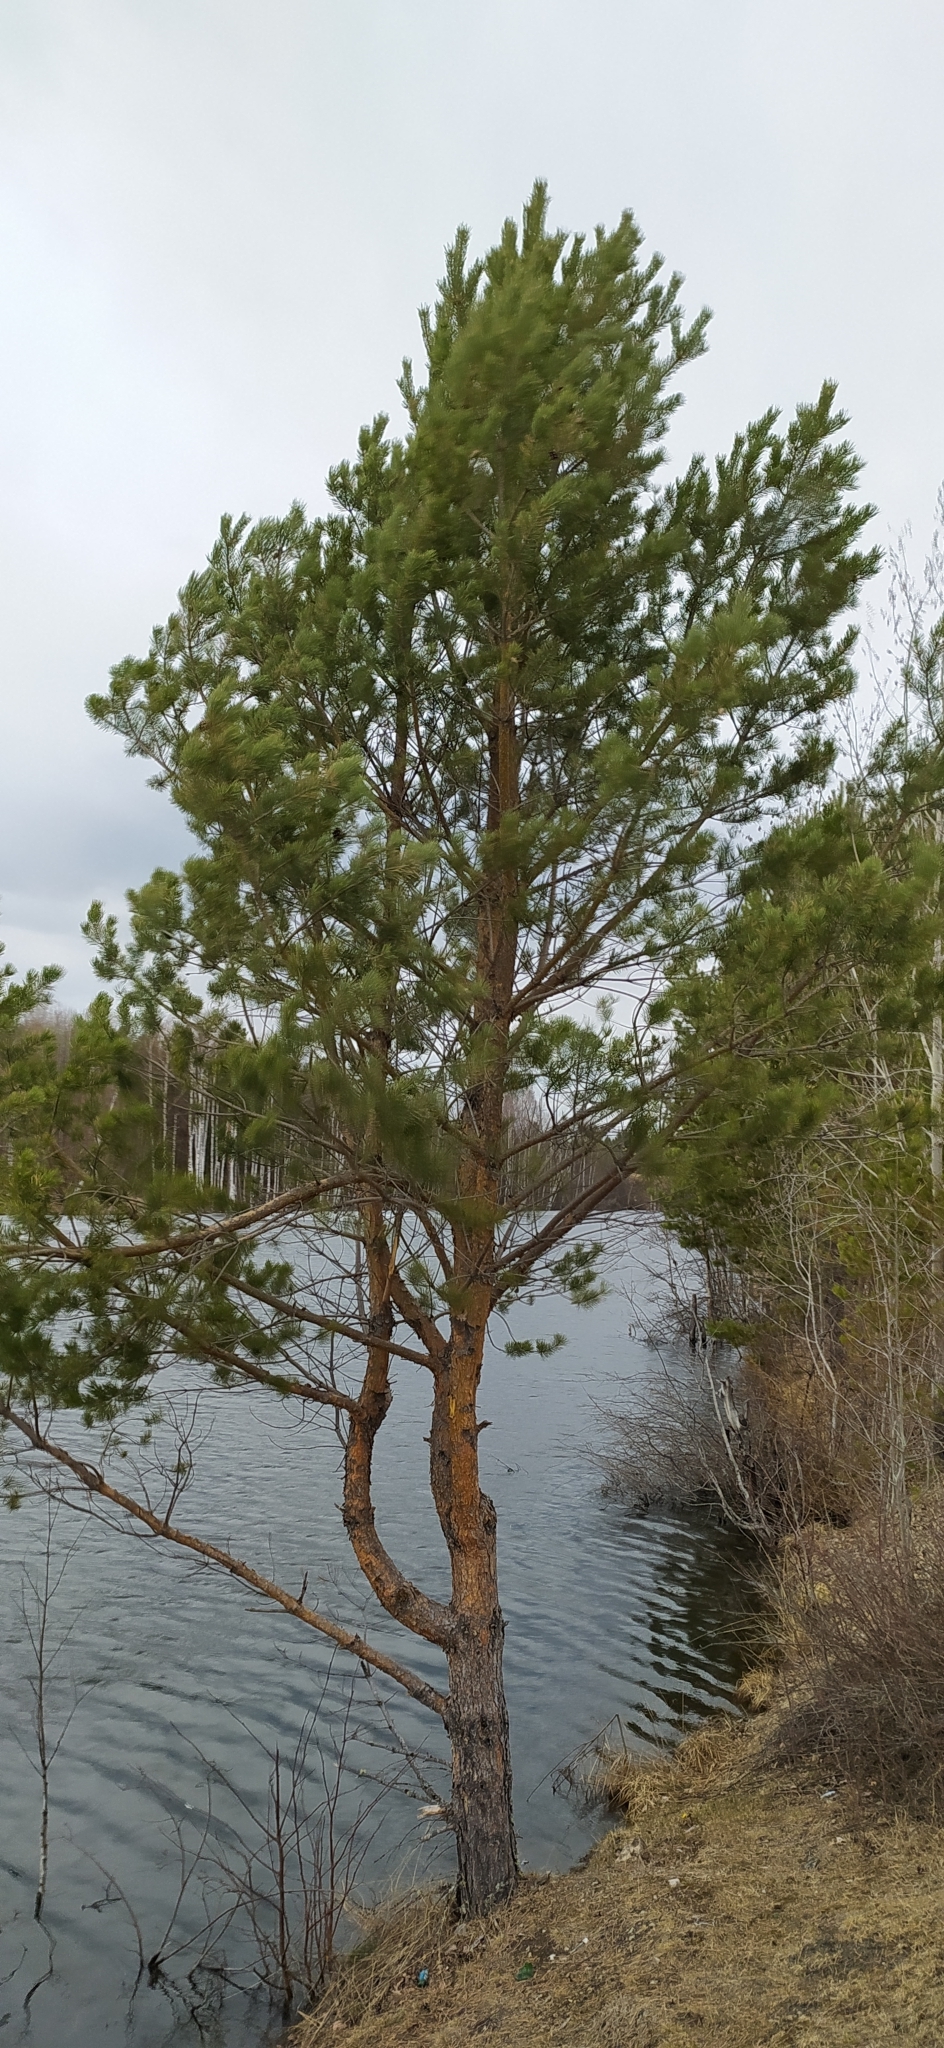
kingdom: Plantae
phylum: Tracheophyta
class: Pinopsida
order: Pinales
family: Pinaceae
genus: Pinus
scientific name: Pinus sylvestris
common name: Scots pine
